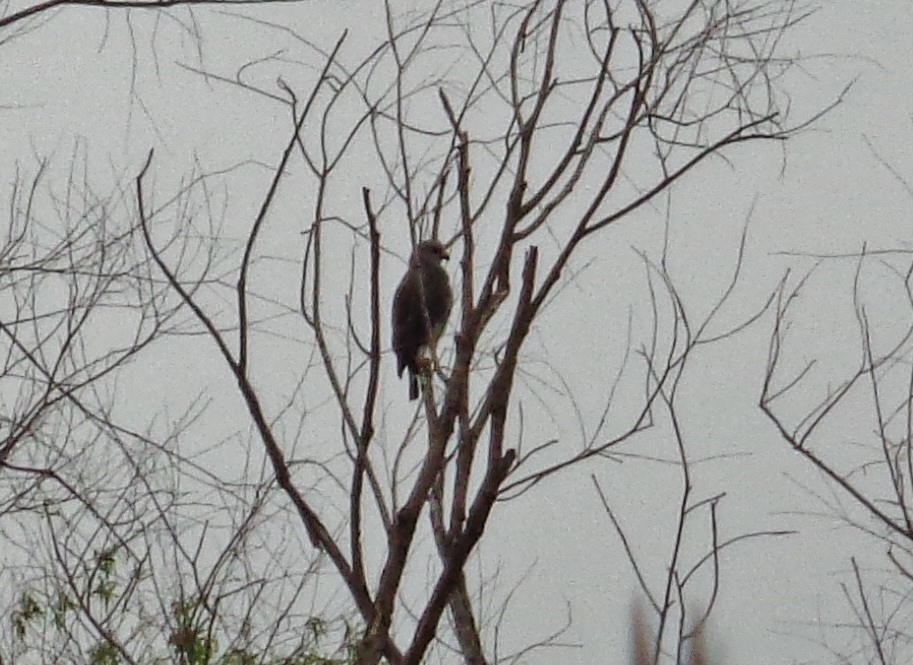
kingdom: Animalia
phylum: Chordata
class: Aves
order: Accipitriformes
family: Accipitridae
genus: Buteo
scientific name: Buteo nitidus
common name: Grey-lined hawk
